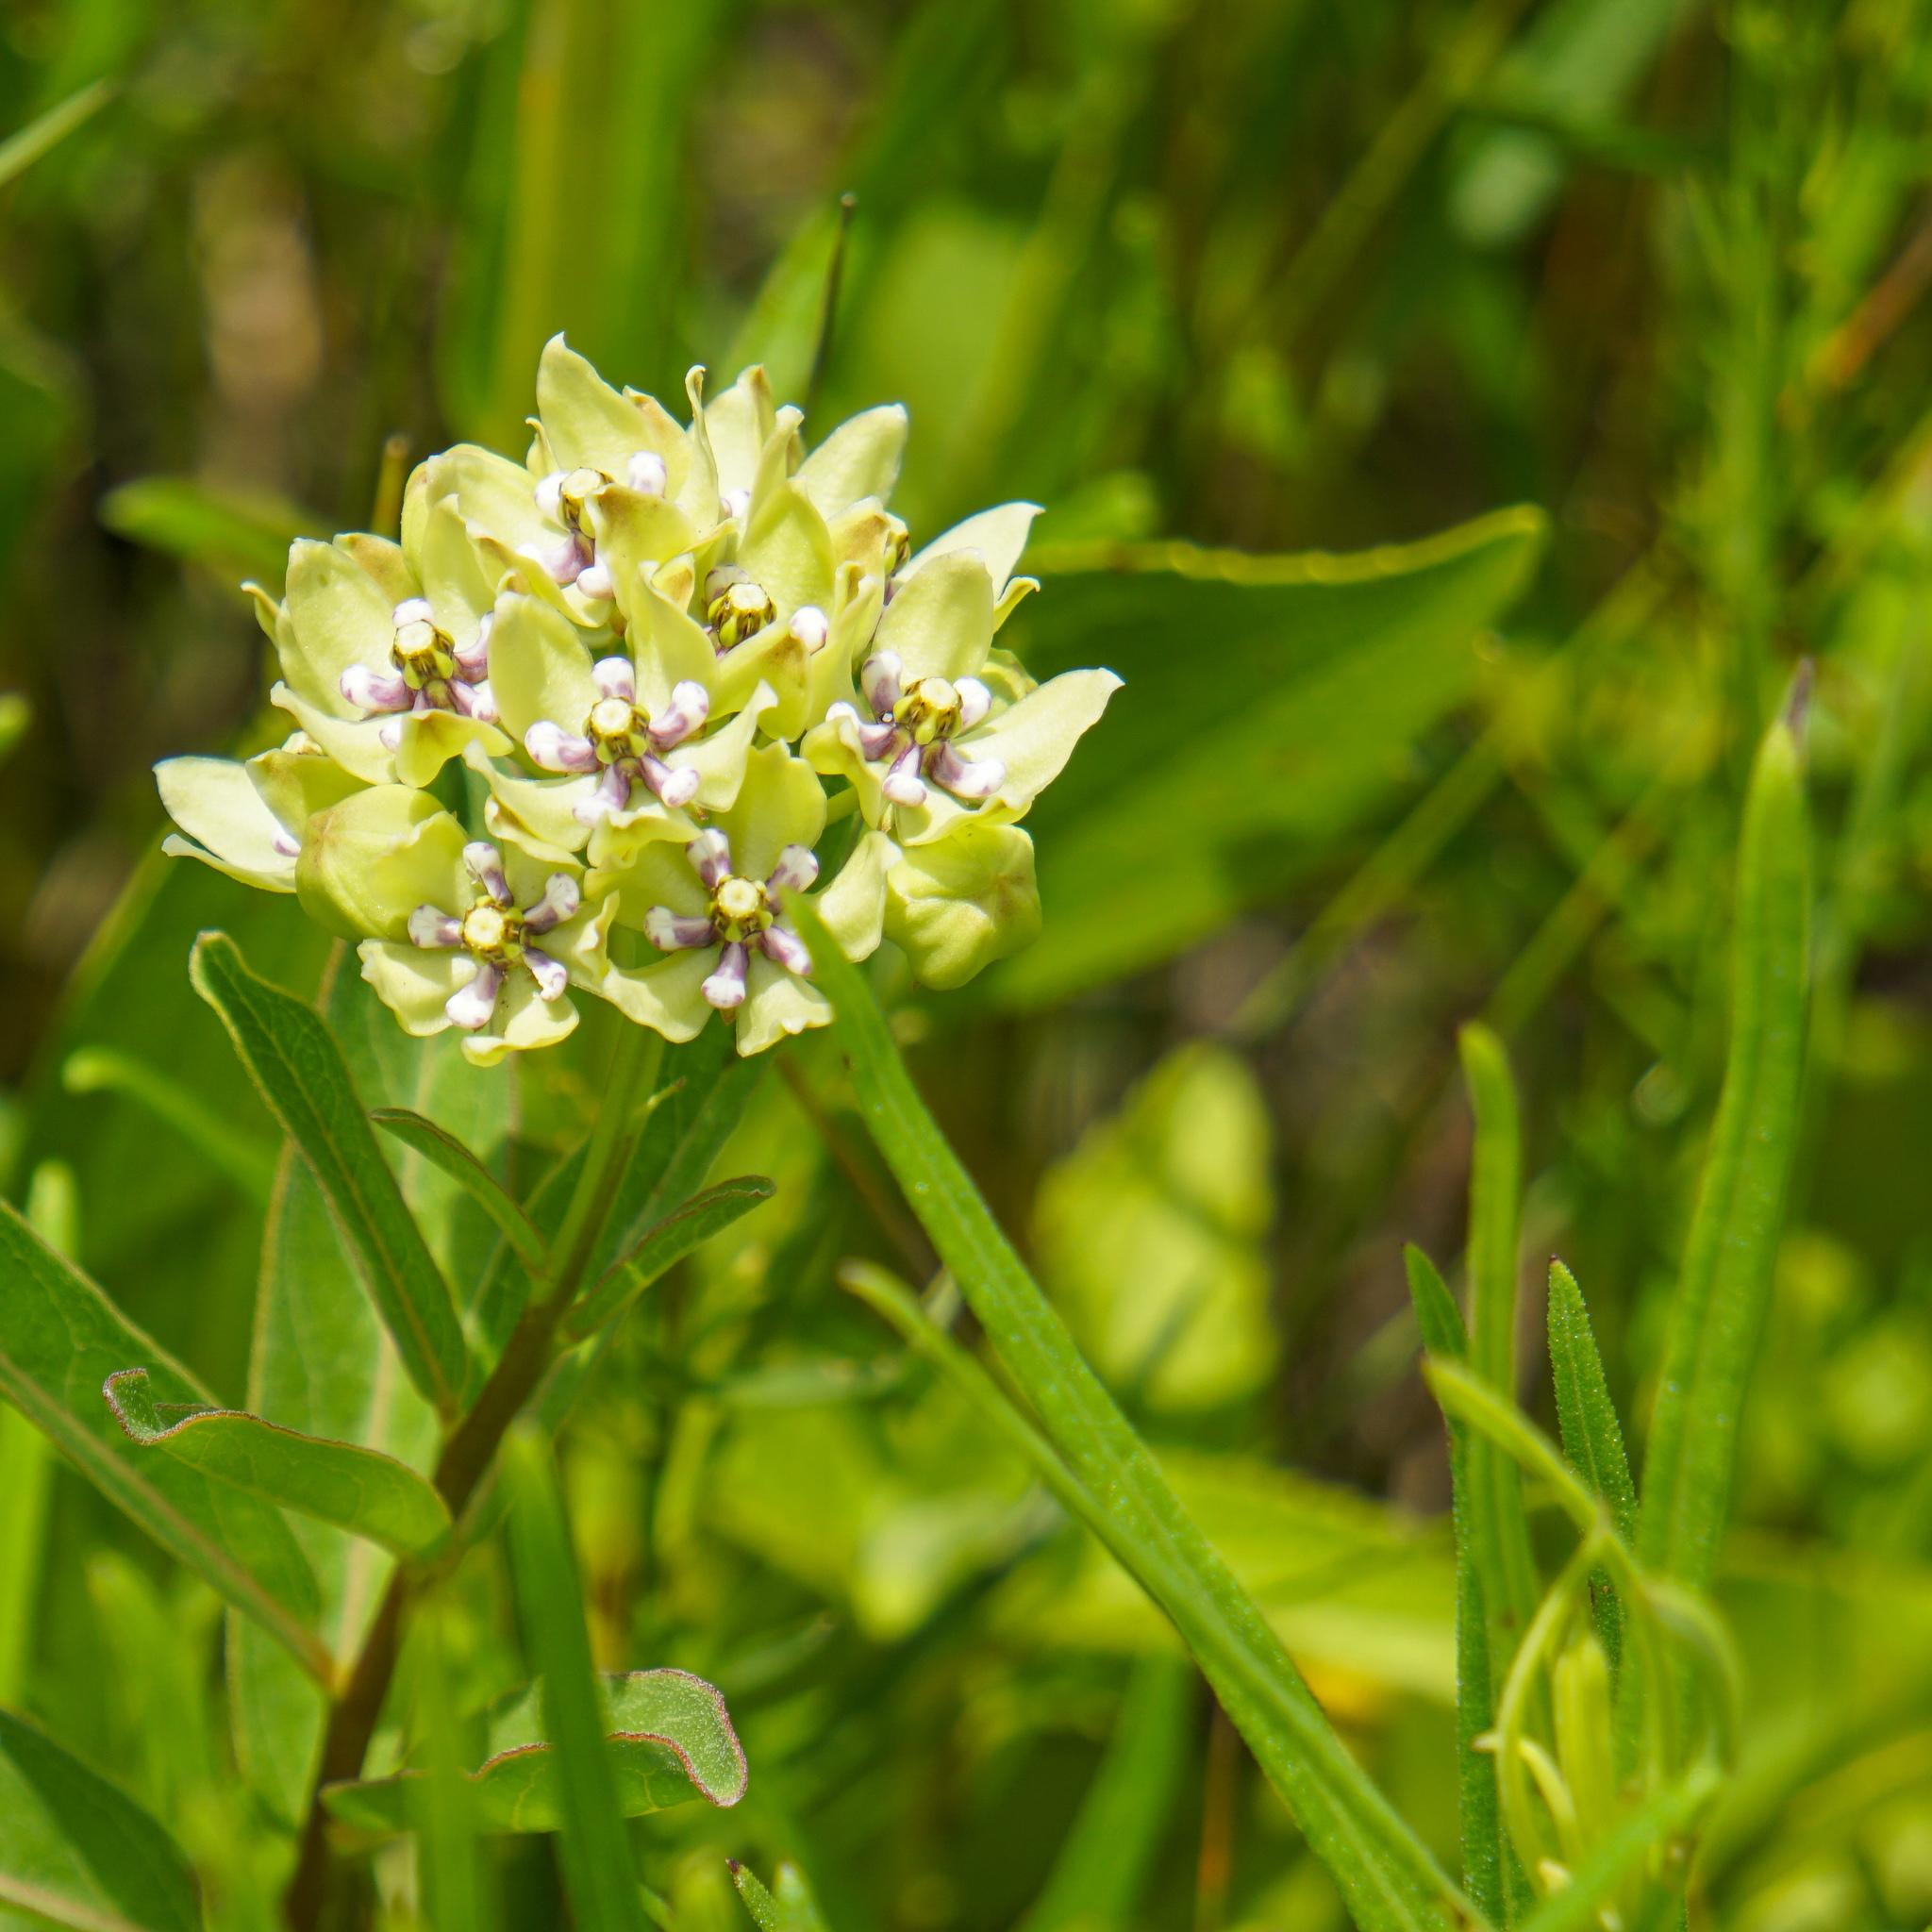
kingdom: Plantae
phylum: Tracheophyta
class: Magnoliopsida
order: Gentianales
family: Apocynaceae
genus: Asclepias
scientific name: Asclepias viridis
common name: Antelope-horns
